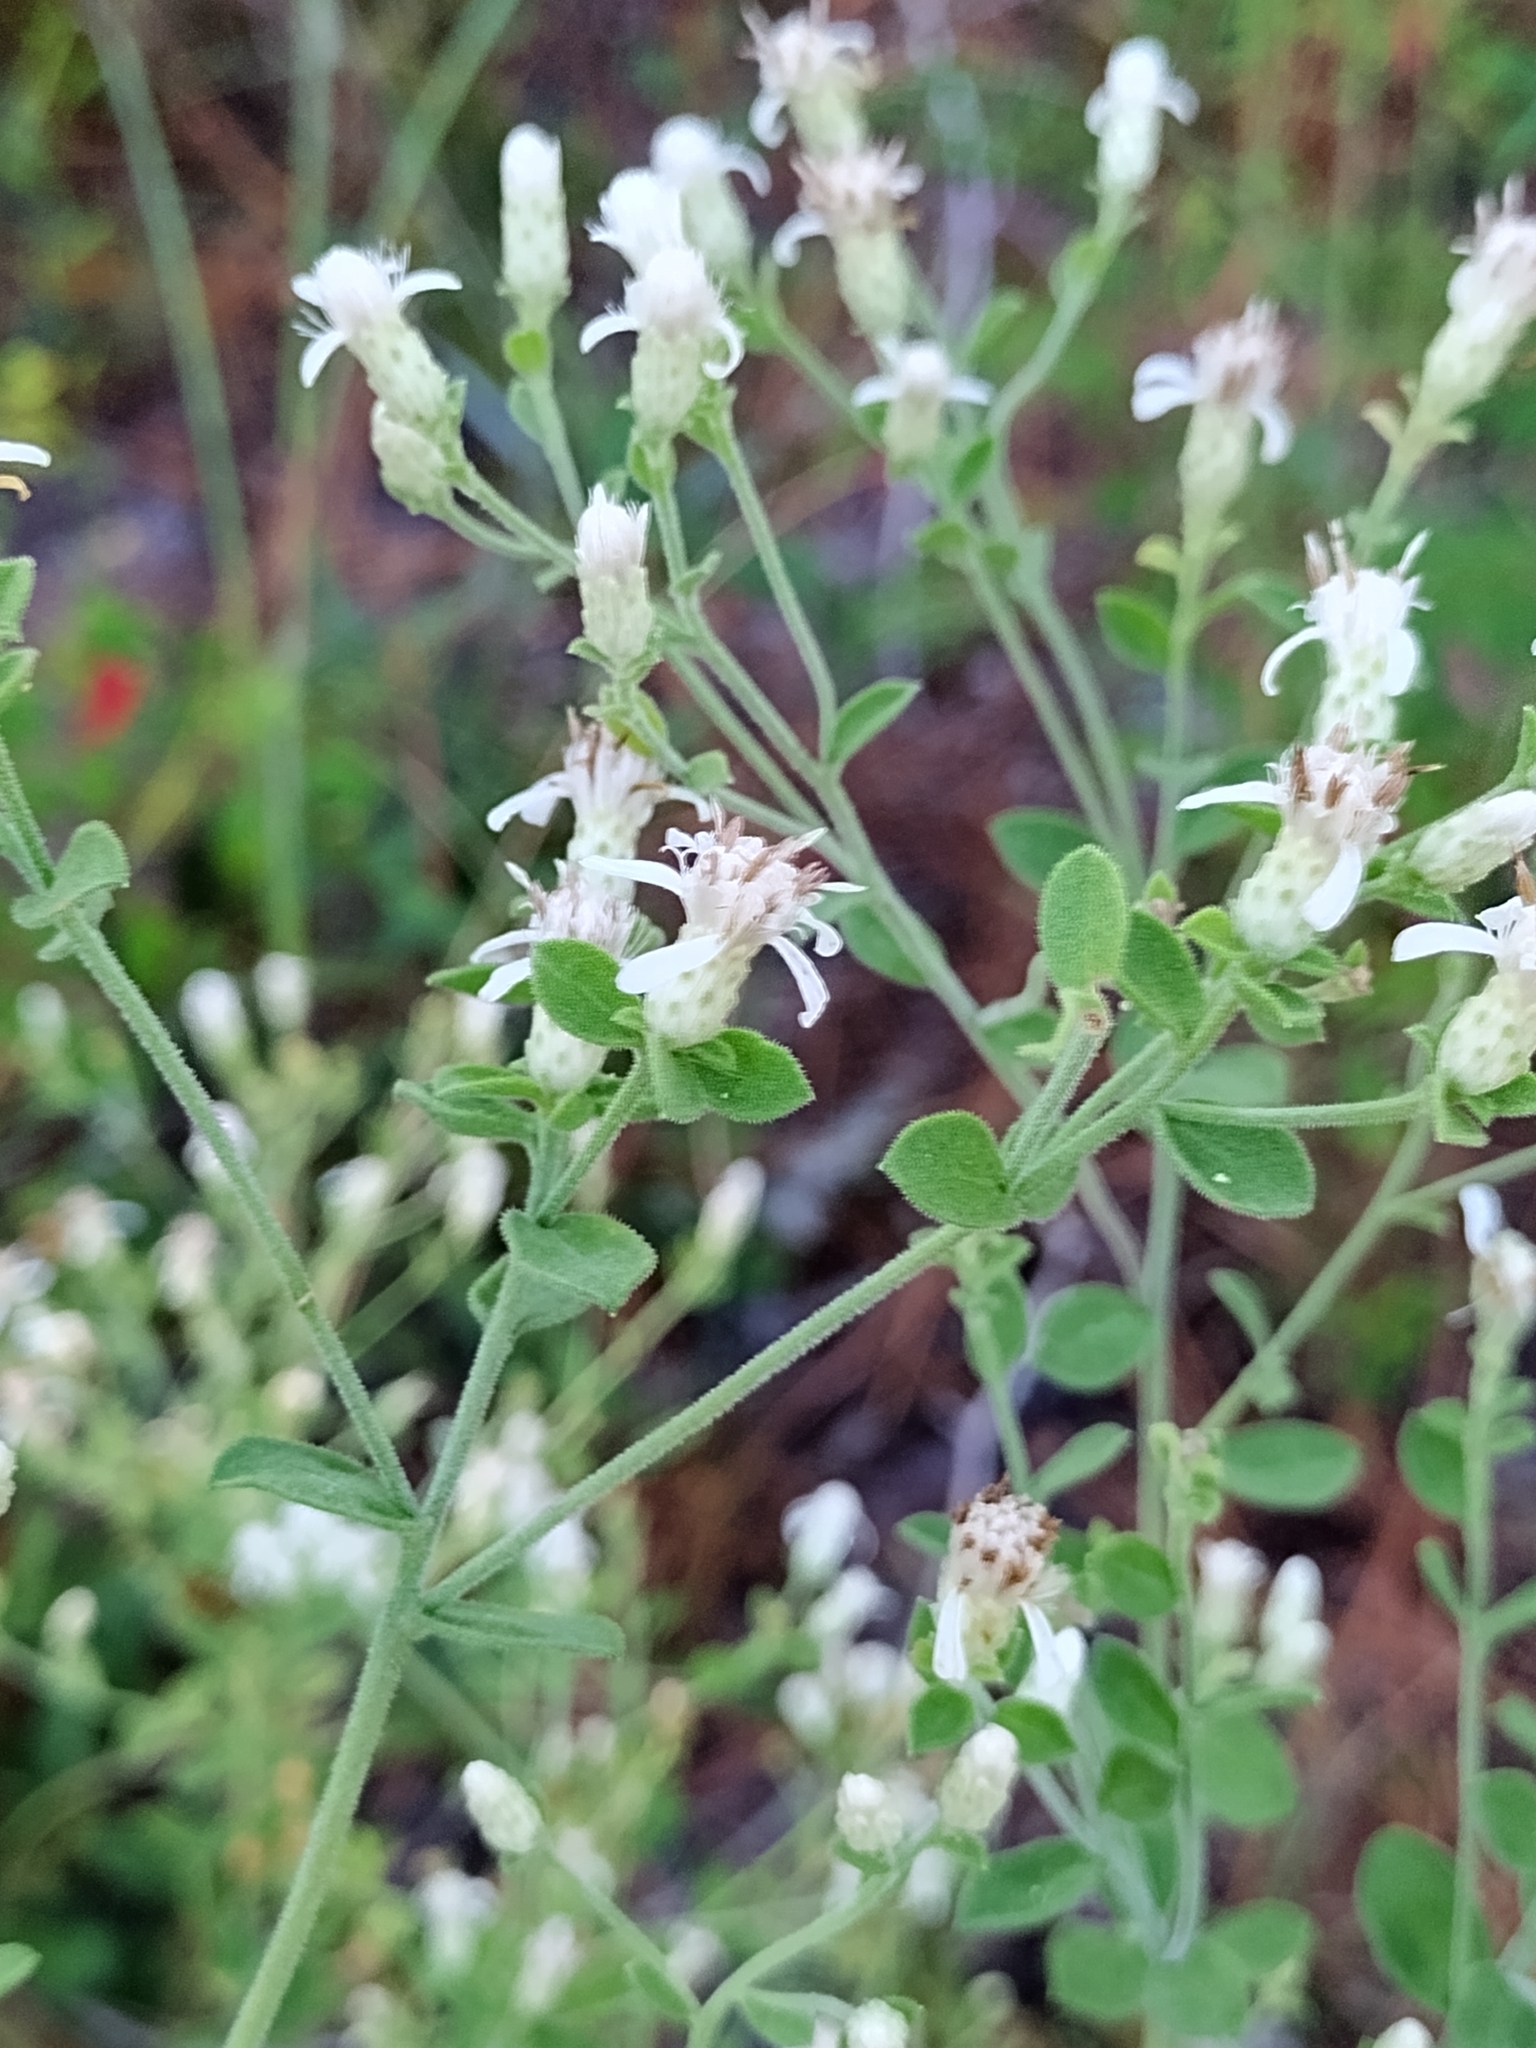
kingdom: Plantae
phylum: Tracheophyta
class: Magnoliopsida
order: Asterales
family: Asteraceae
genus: Sericocarpus
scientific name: Sericocarpus tortifolius
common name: Dixie aster
